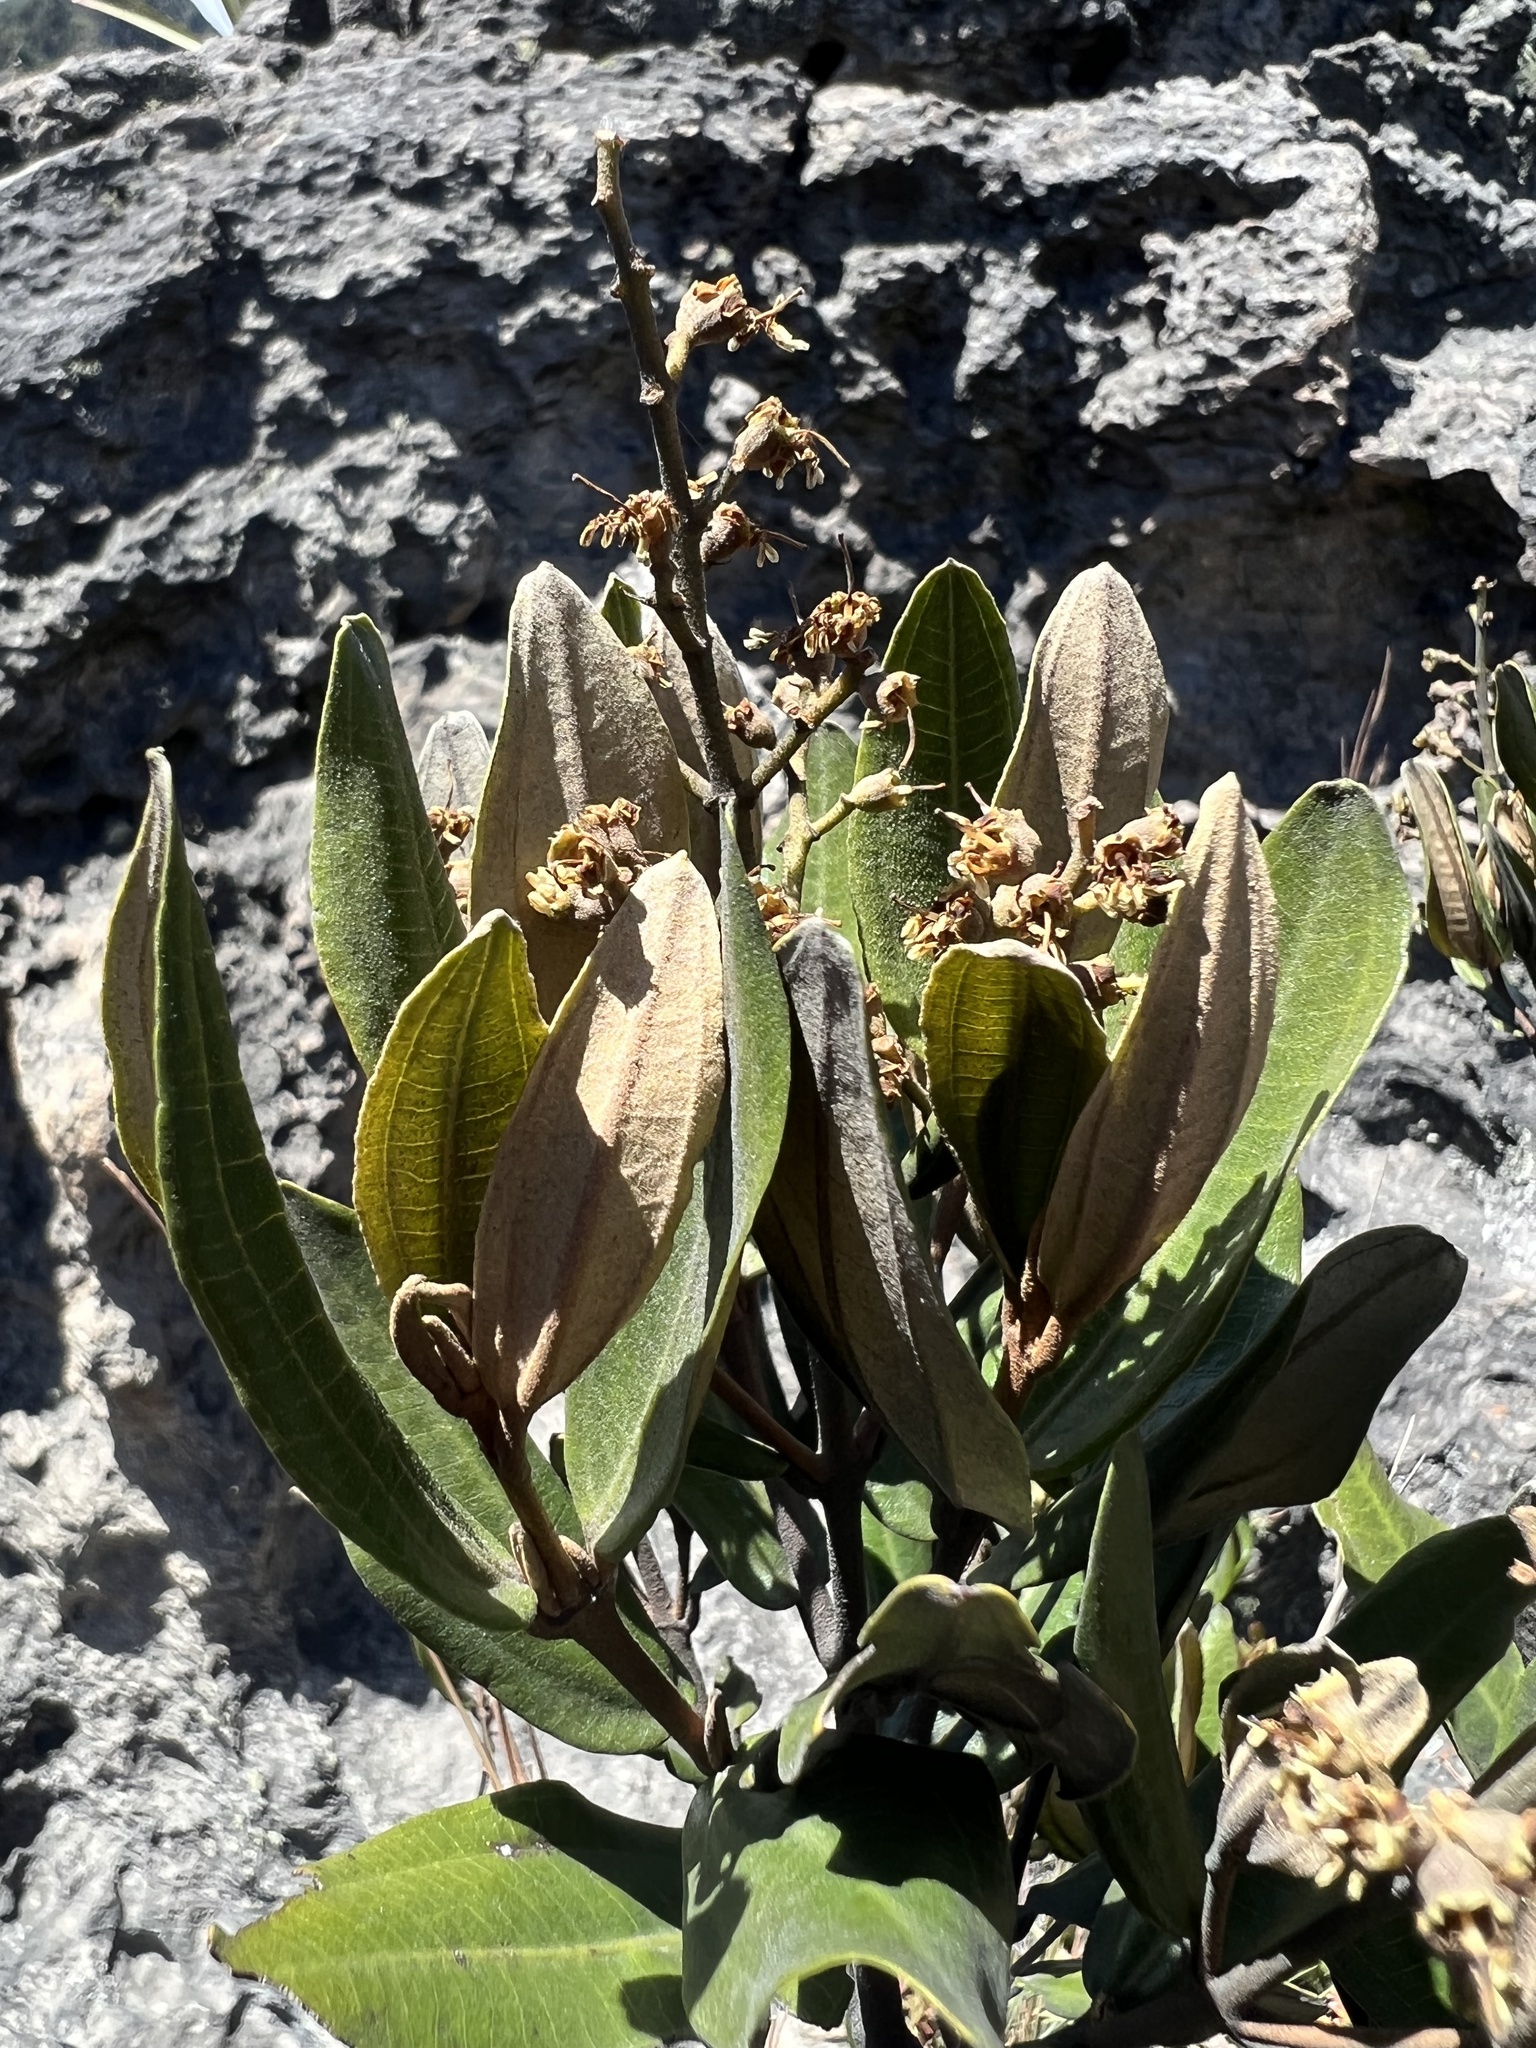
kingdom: Plantae
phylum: Tracheophyta
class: Magnoliopsida
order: Myrtales
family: Melastomataceae
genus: Miconia
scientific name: Miconia squamulosa
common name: Squamulose maya
